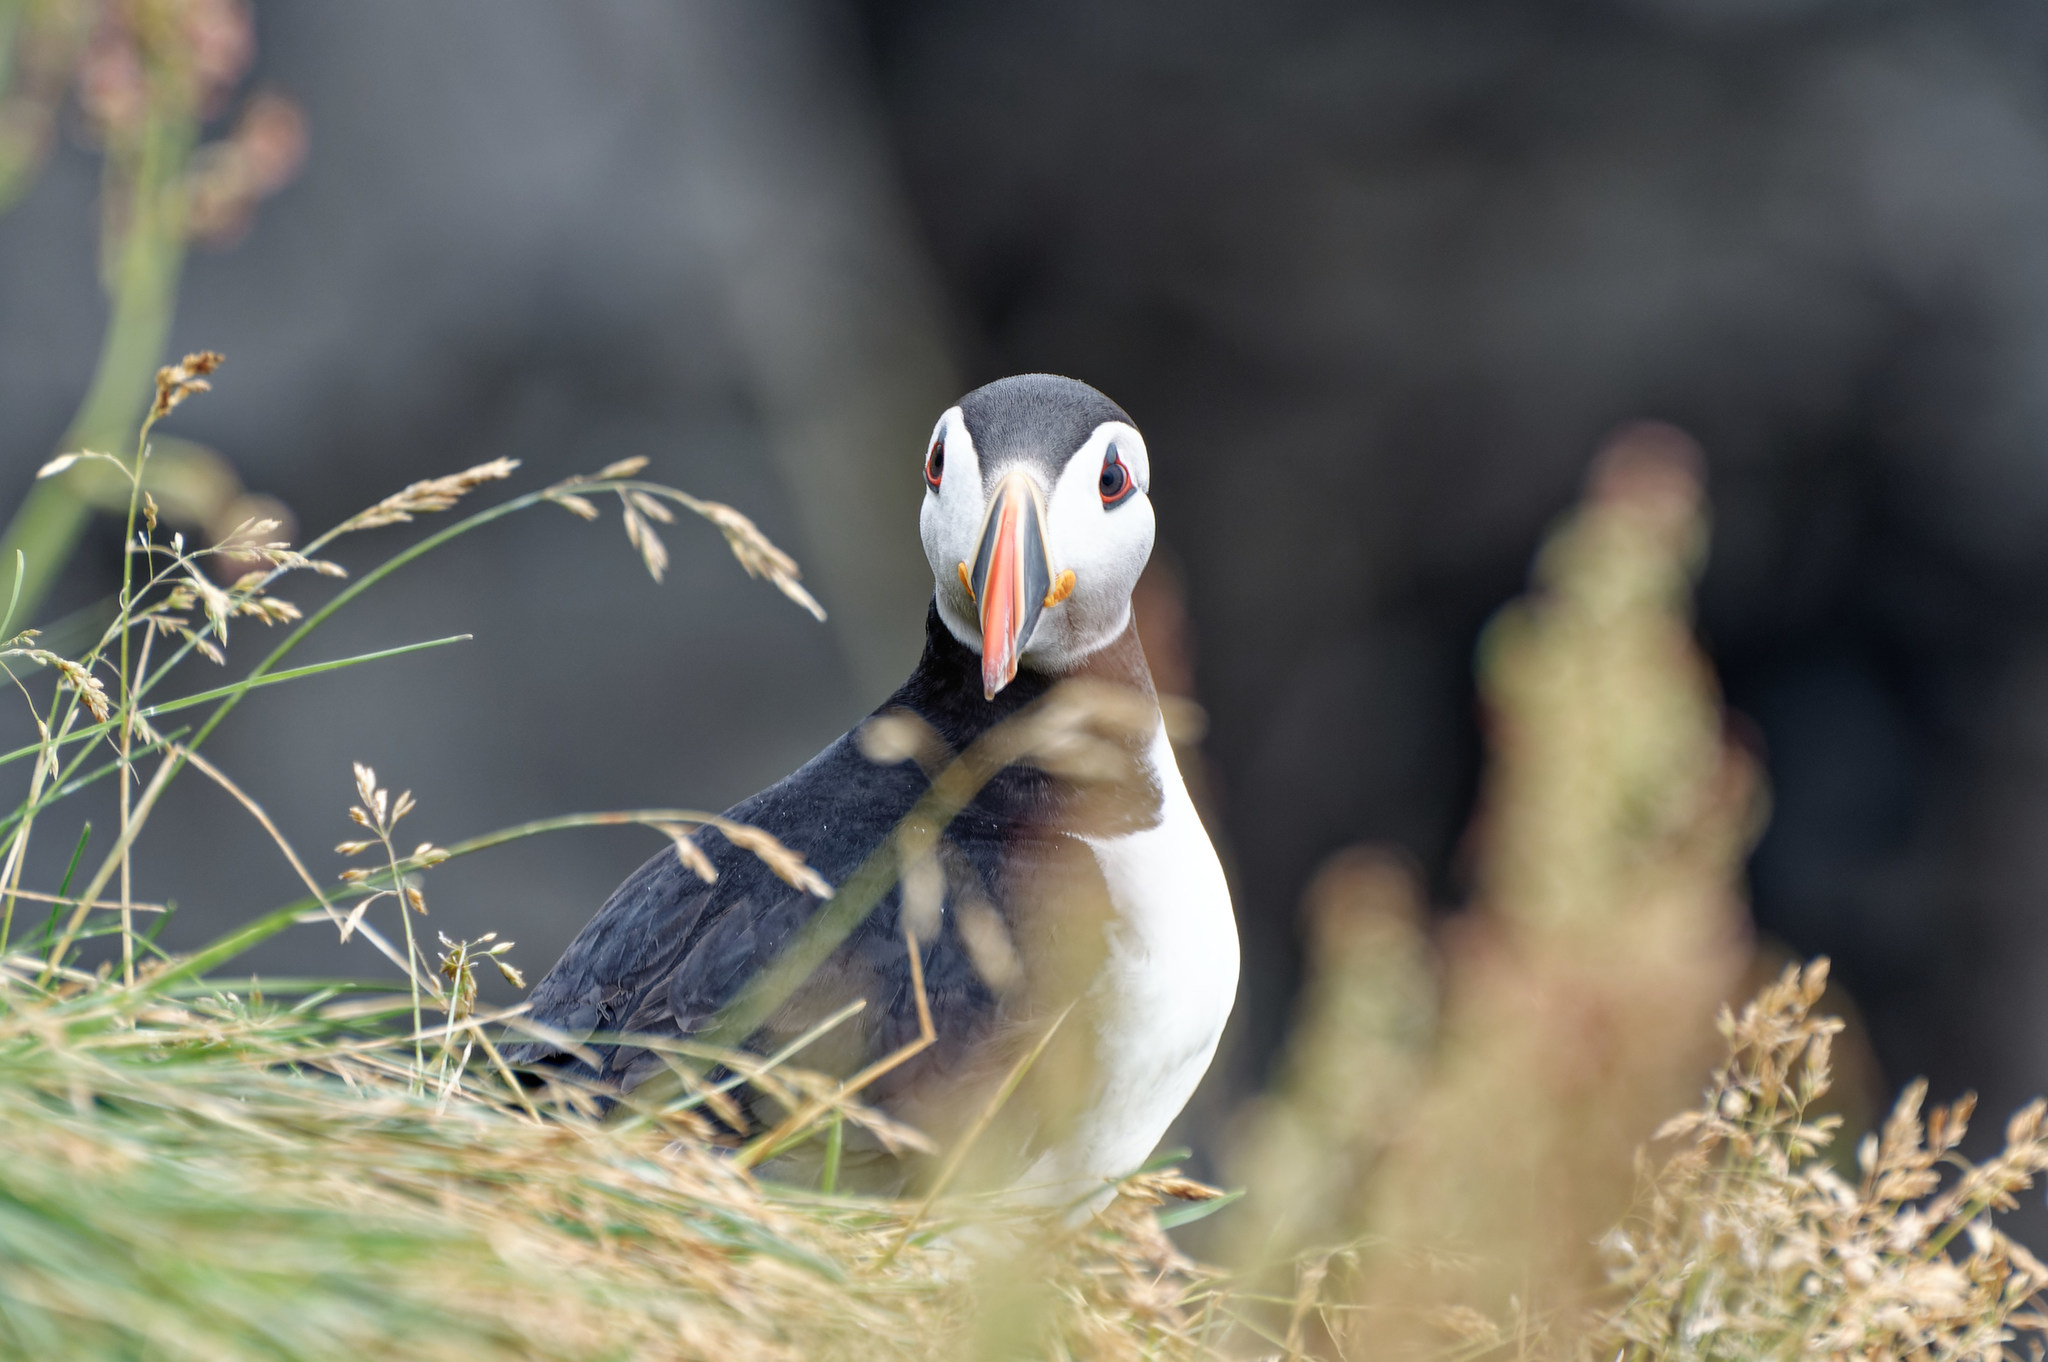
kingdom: Animalia
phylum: Chordata
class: Aves
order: Charadriiformes
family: Alcidae
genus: Fratercula
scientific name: Fratercula arctica
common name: Atlantic puffin
